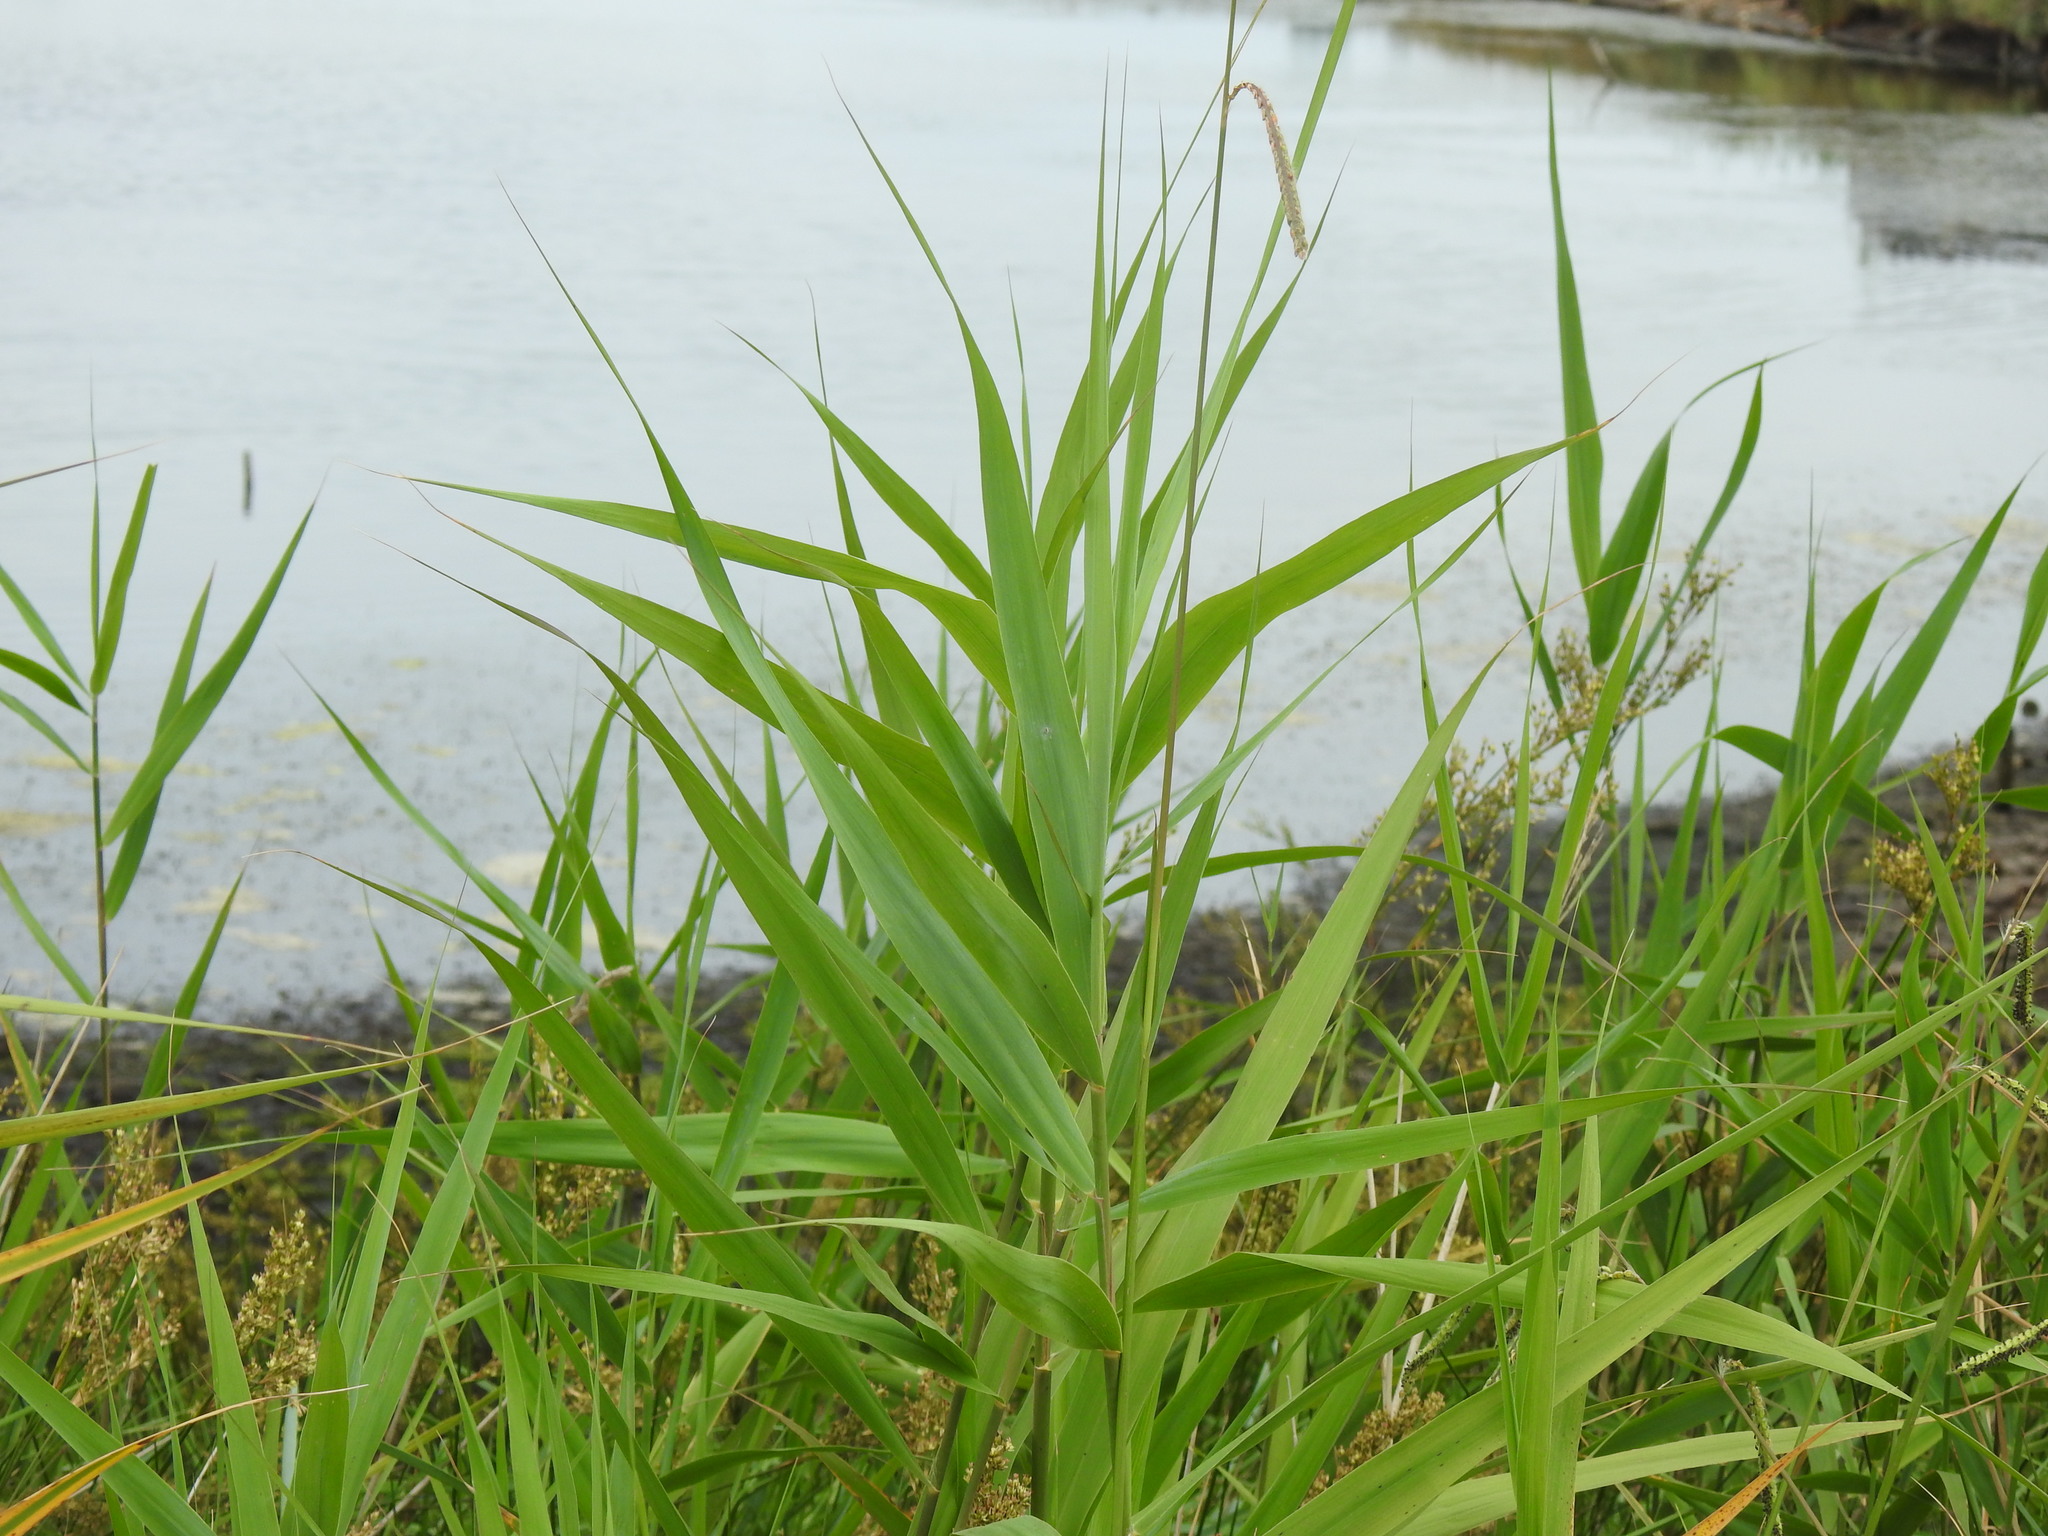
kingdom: Plantae
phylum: Tracheophyta
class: Liliopsida
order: Poales
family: Poaceae
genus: Phragmites
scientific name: Phragmites australis
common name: Common reed
